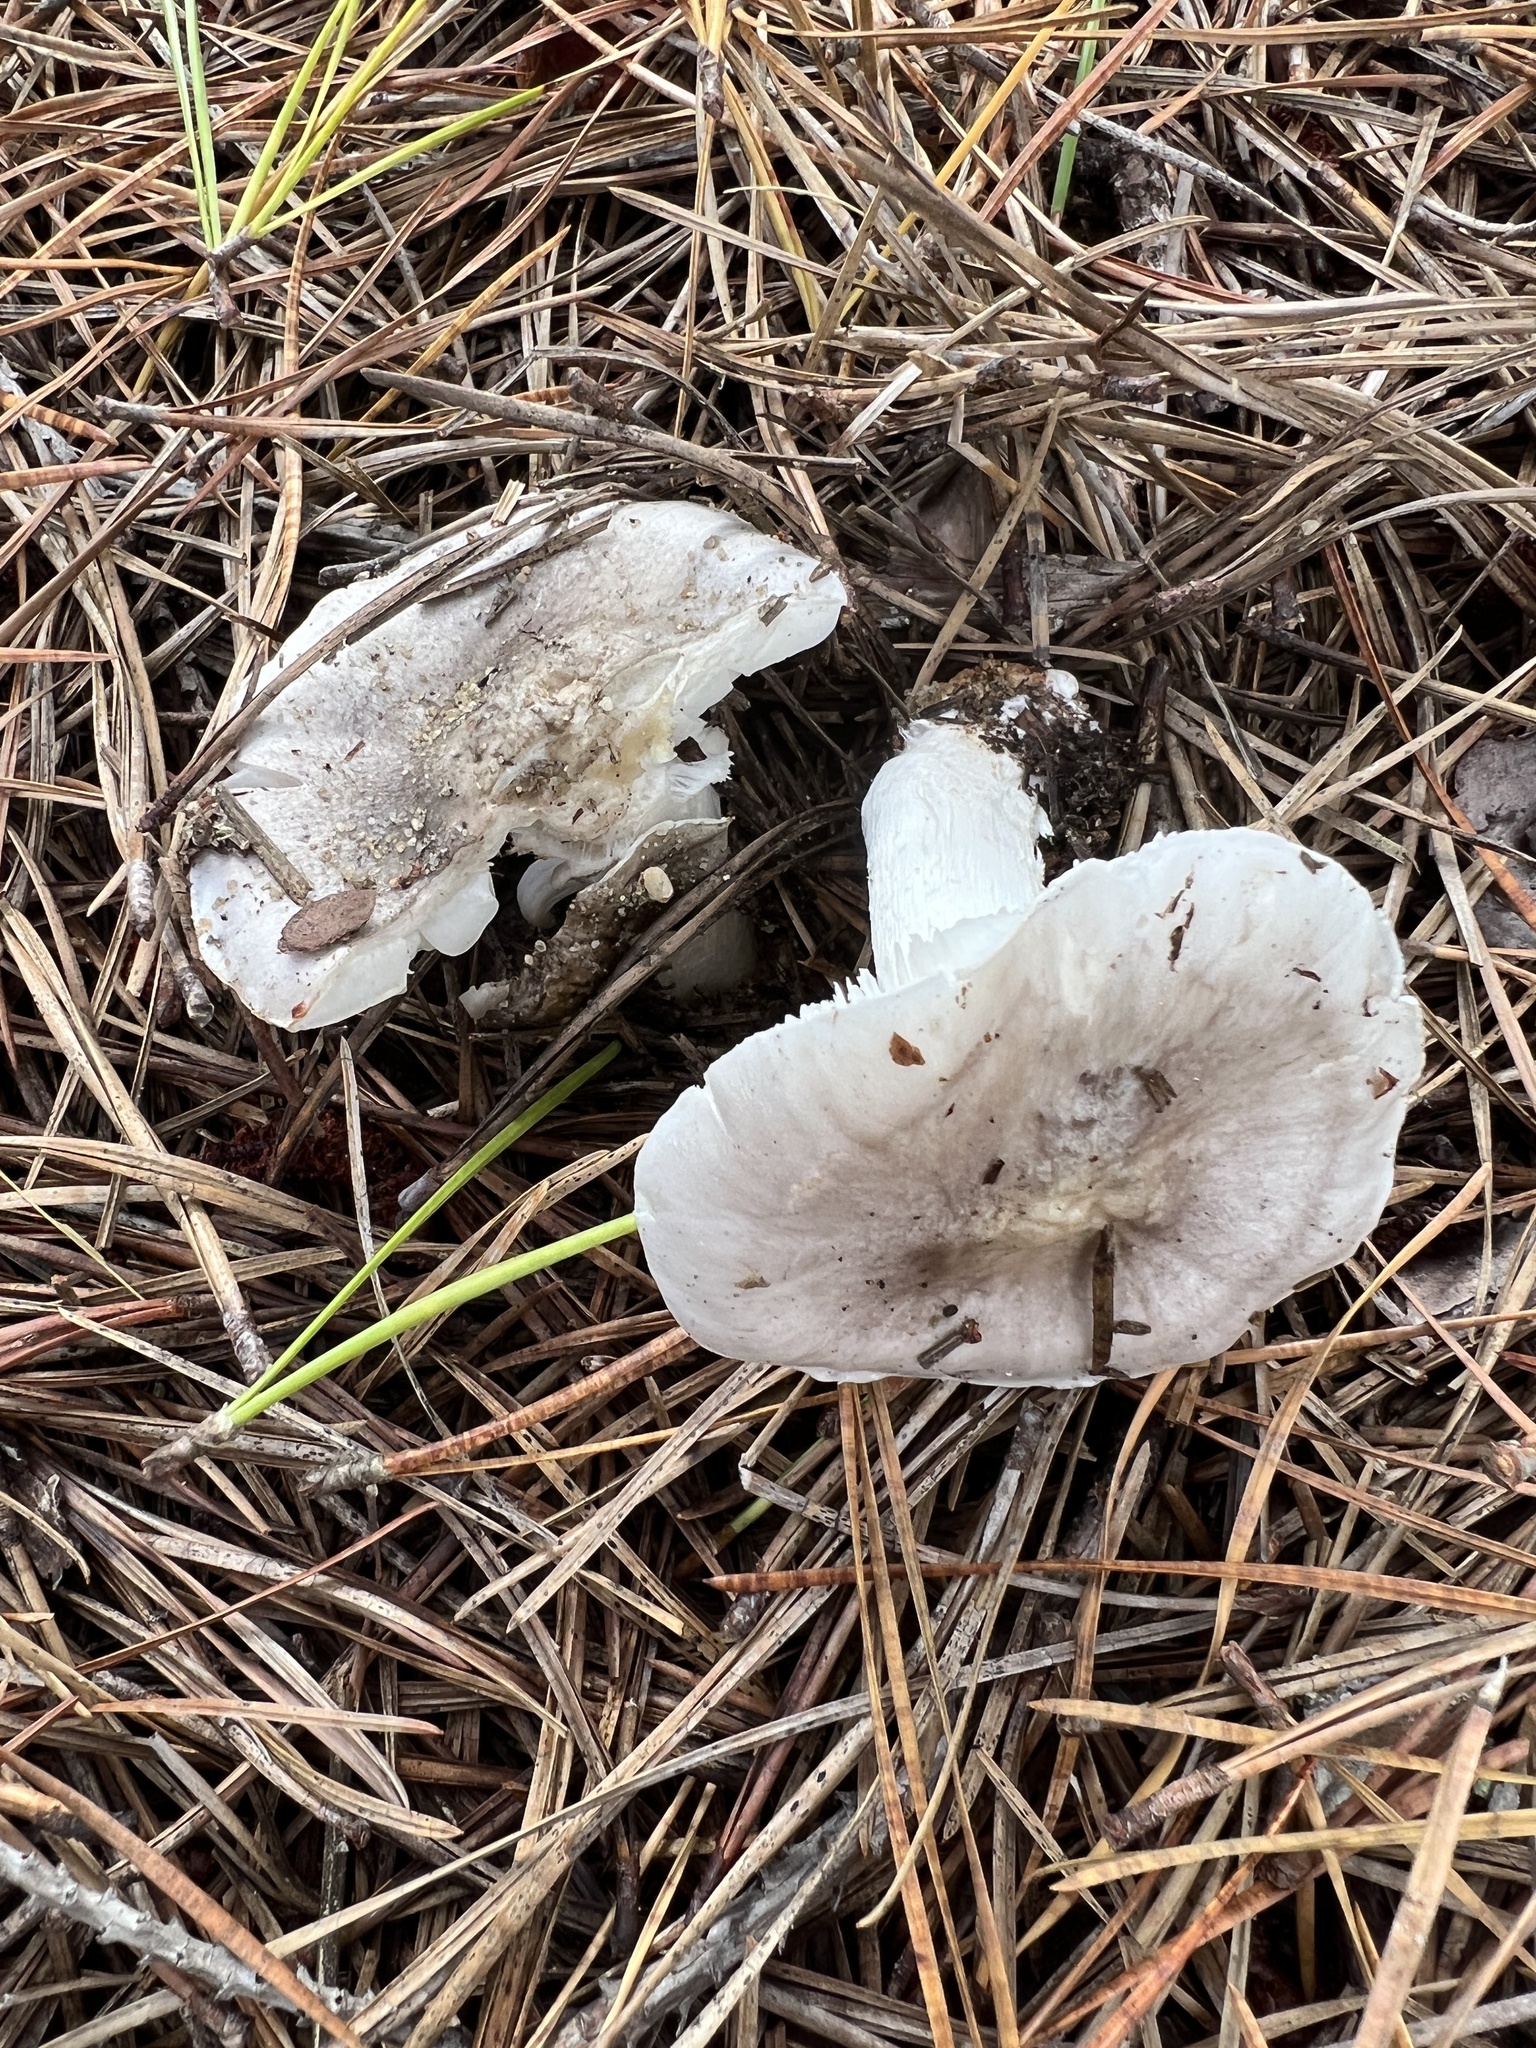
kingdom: Fungi
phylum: Basidiomycota
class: Agaricomycetes
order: Agaricales
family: Tricholomataceae
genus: Tricholoma
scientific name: Tricholoma terreum
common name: Grey knight
